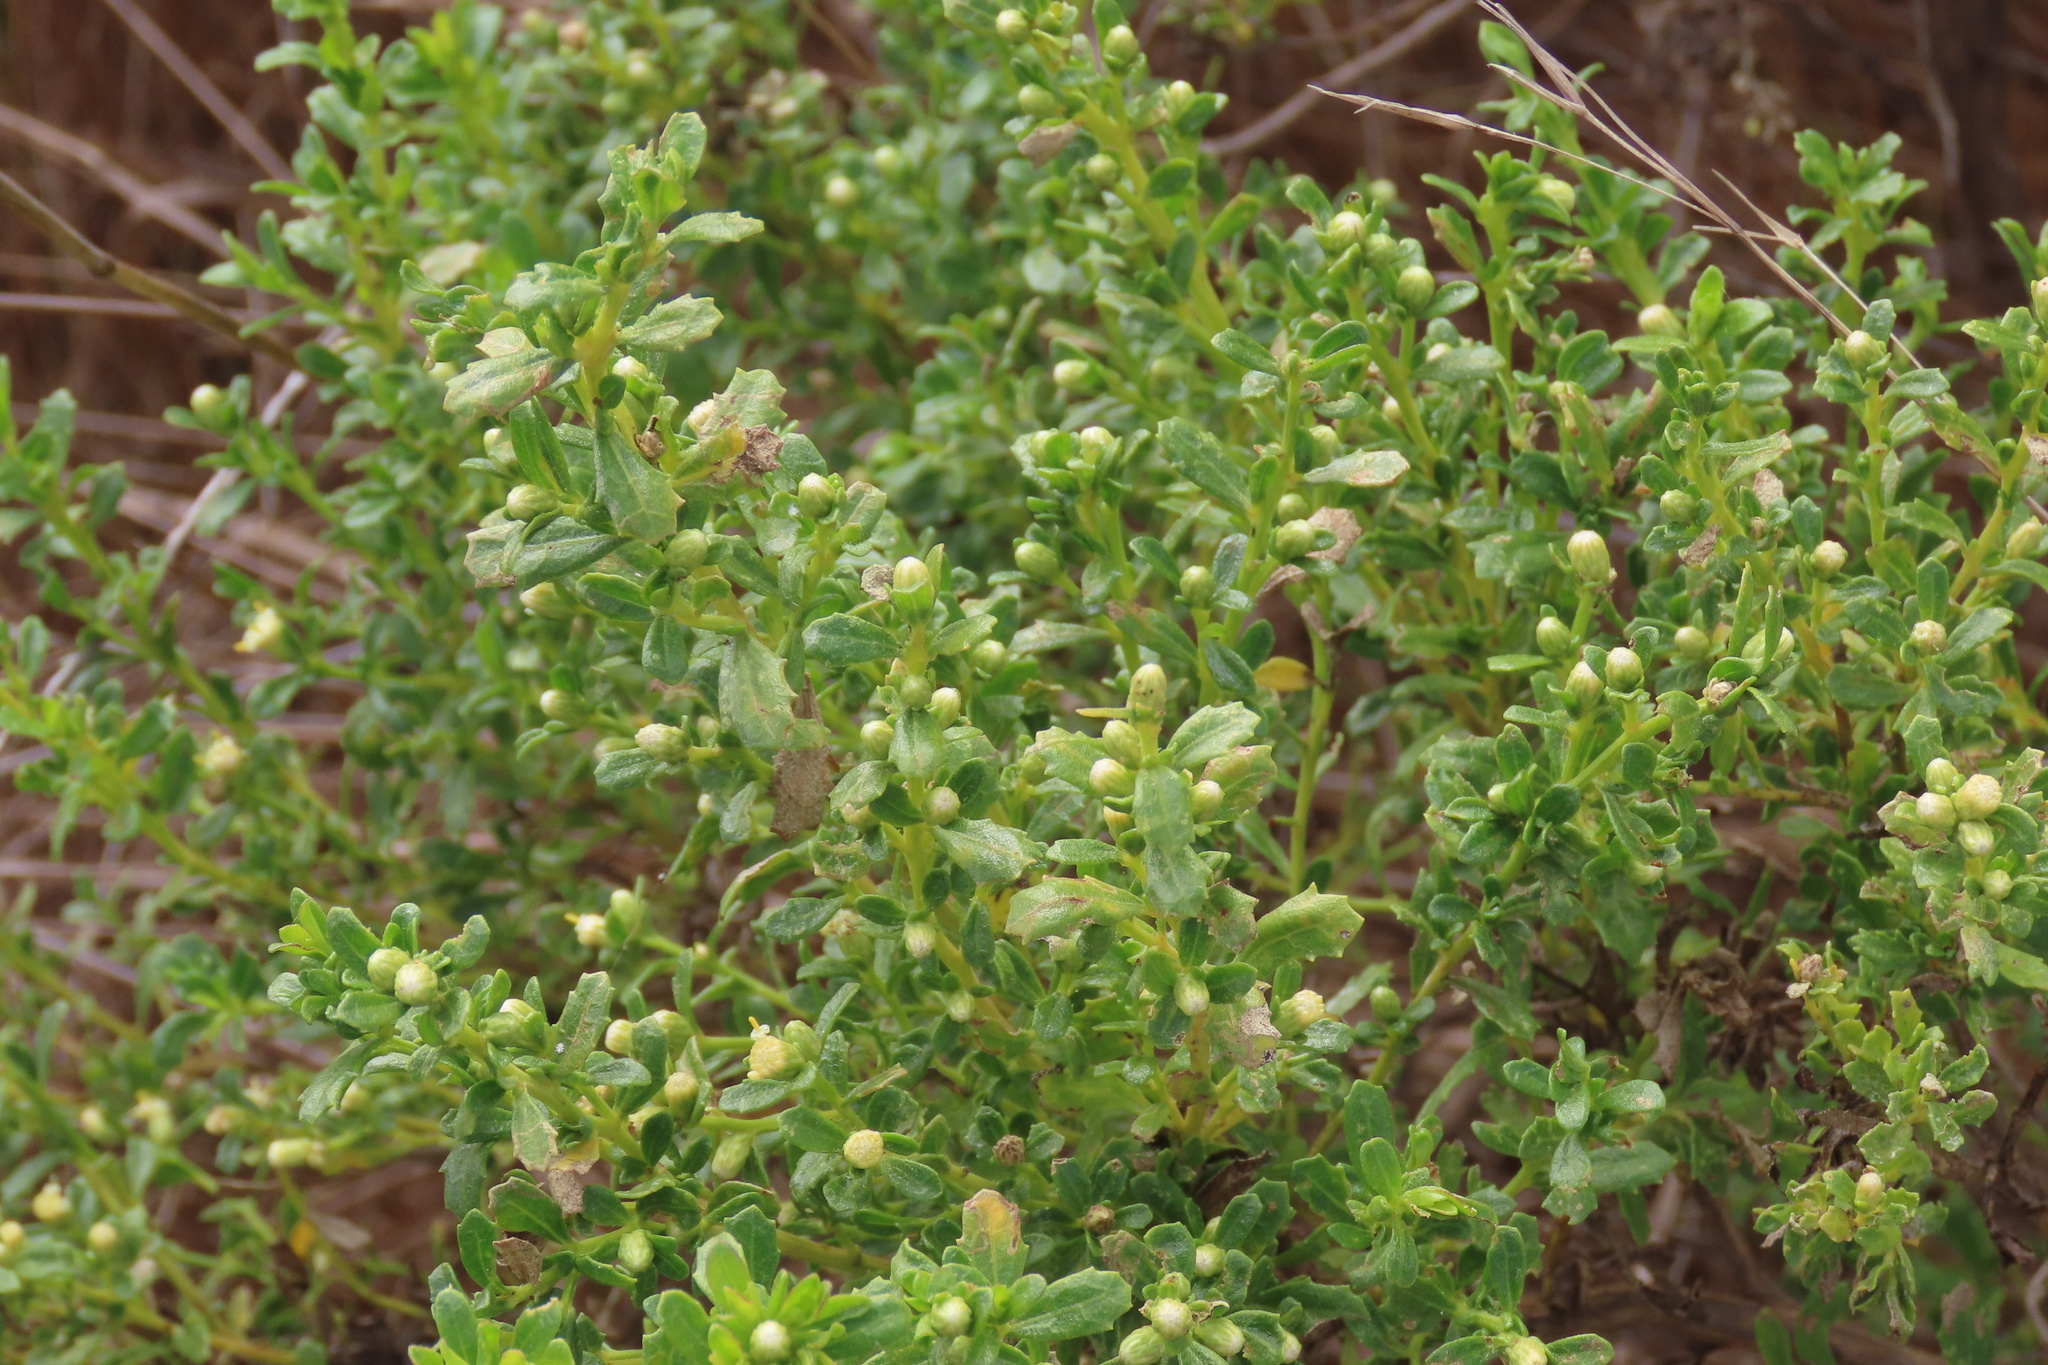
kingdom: Plantae
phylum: Tracheophyta
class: Magnoliopsida
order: Asterales
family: Asteraceae
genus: Baccharis
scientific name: Baccharis pilularis
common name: Coyotebrush
